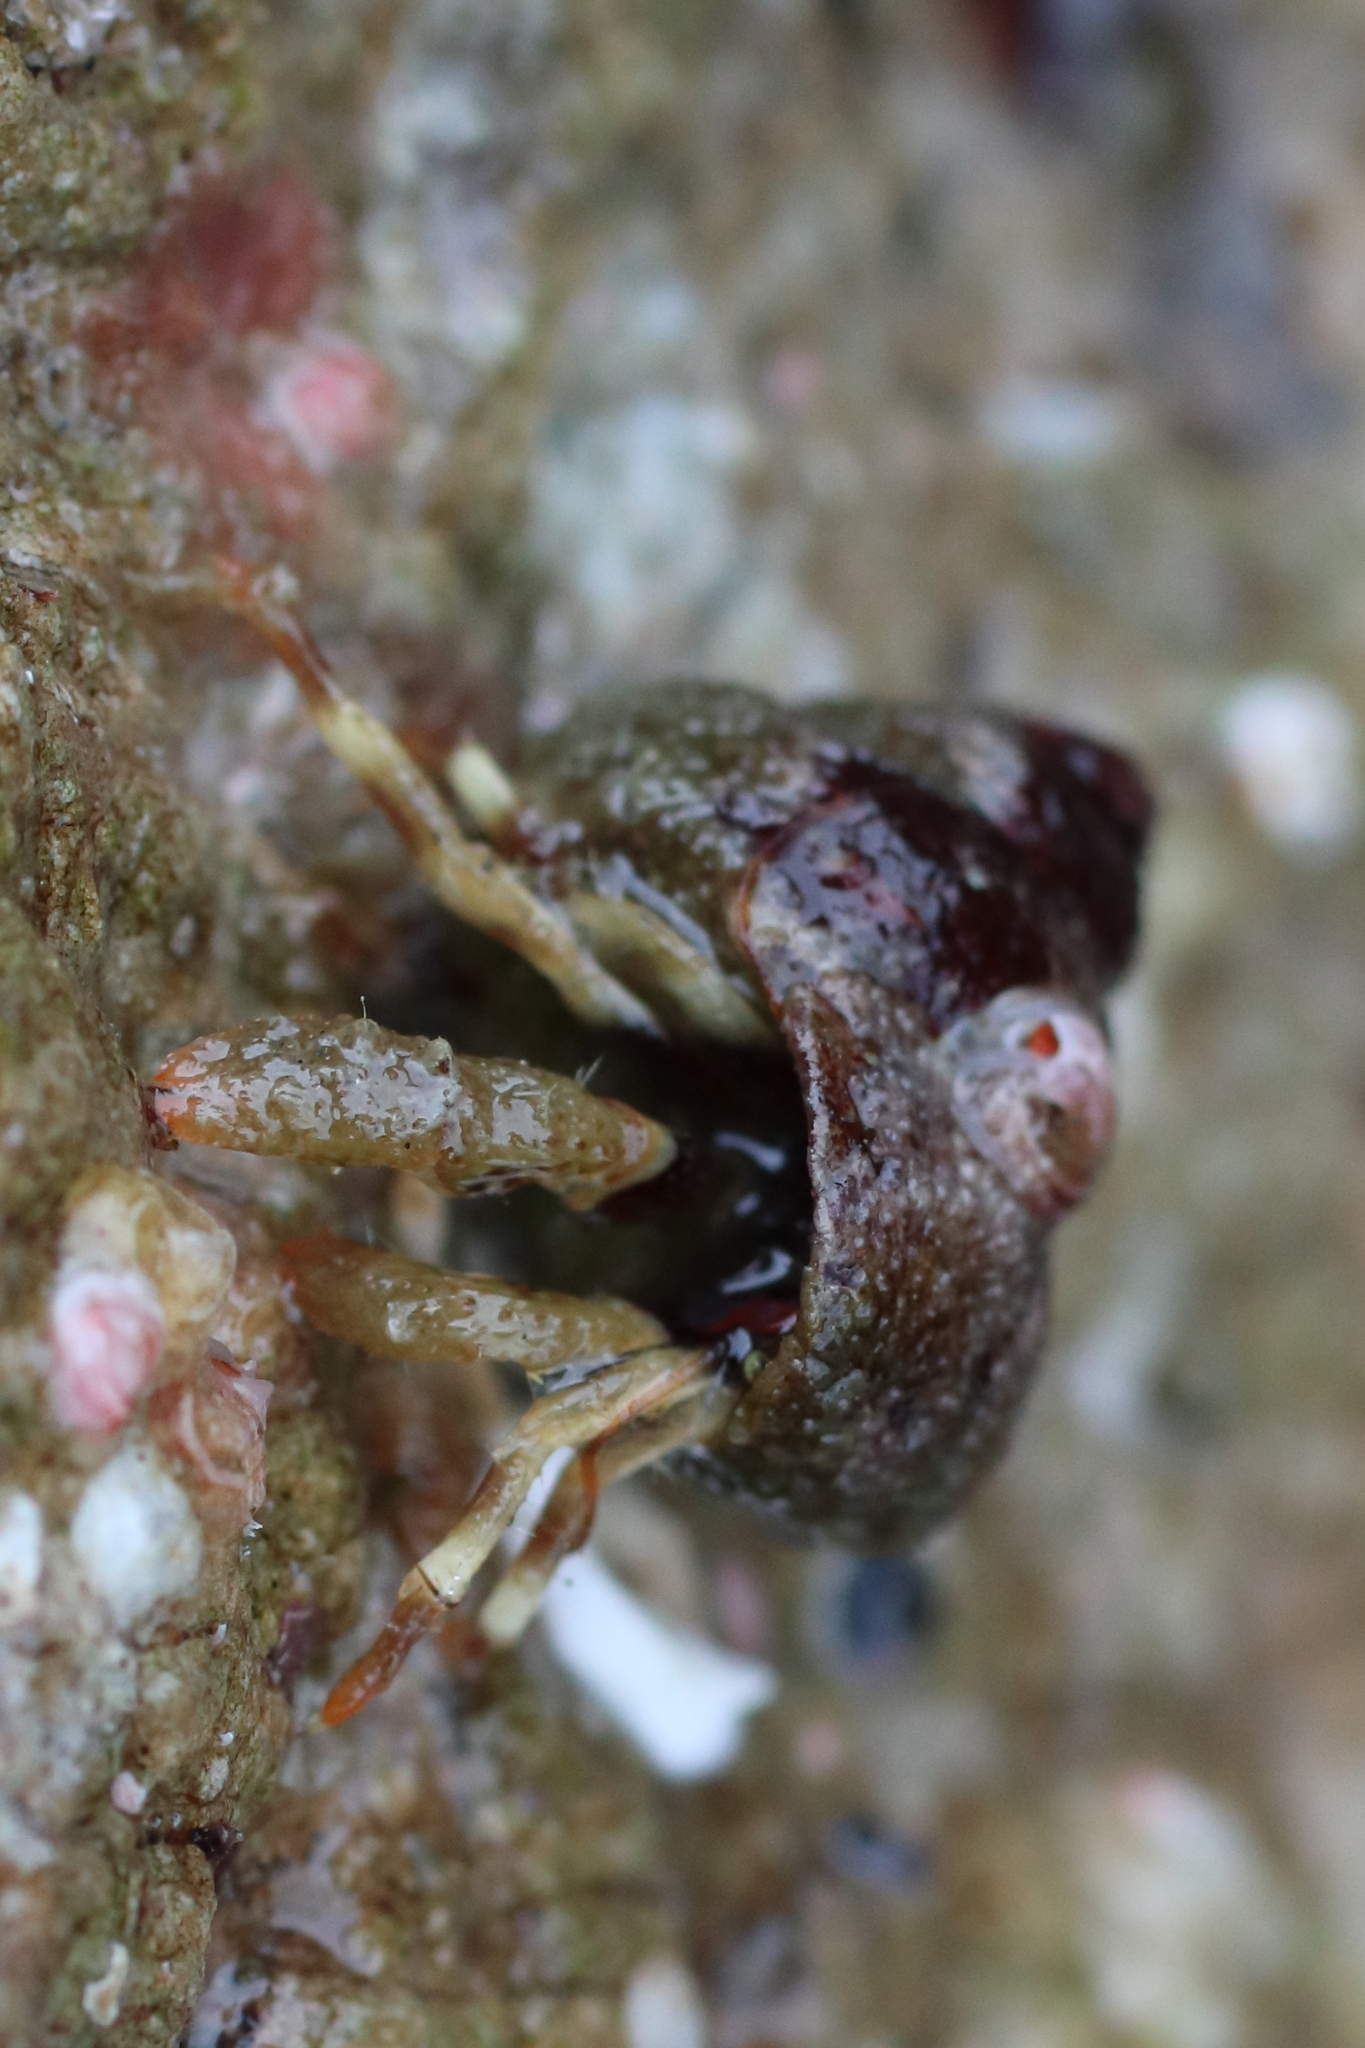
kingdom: Animalia
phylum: Arthropoda
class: Malacostraca
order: Decapoda
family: Paguridae
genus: Pagurus
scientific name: Pagurus caurinus
